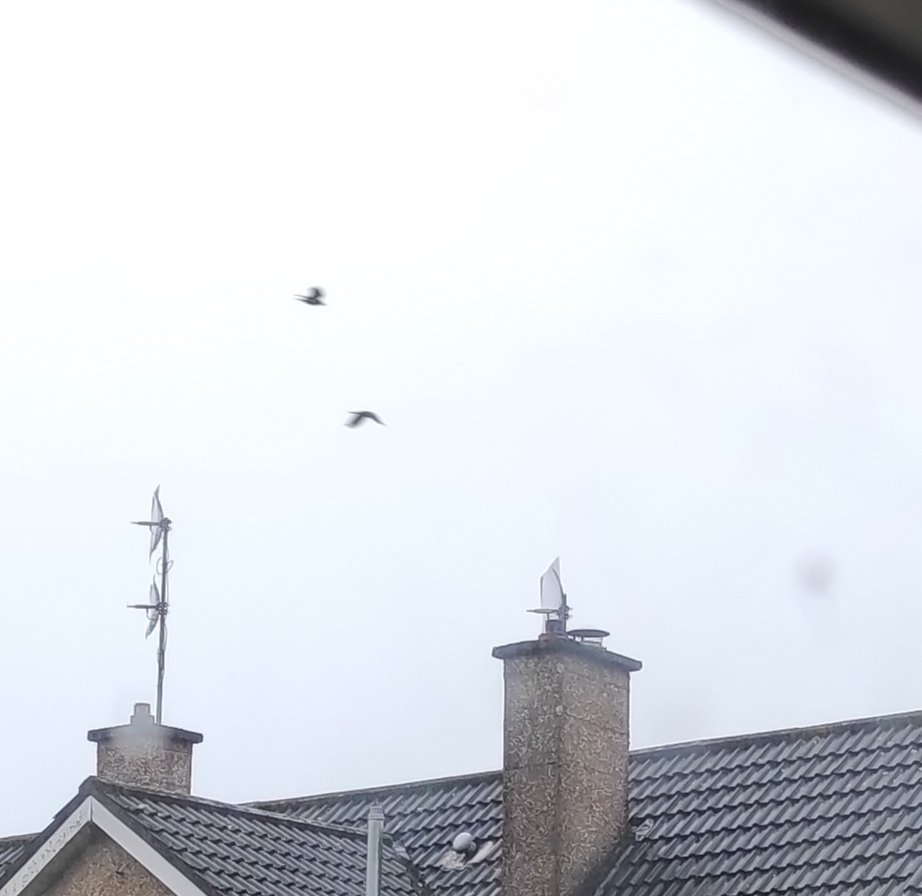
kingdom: Animalia
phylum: Chordata
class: Aves
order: Passeriformes
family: Corvidae
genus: Coloeus
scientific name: Coloeus monedula
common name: Western jackdaw
